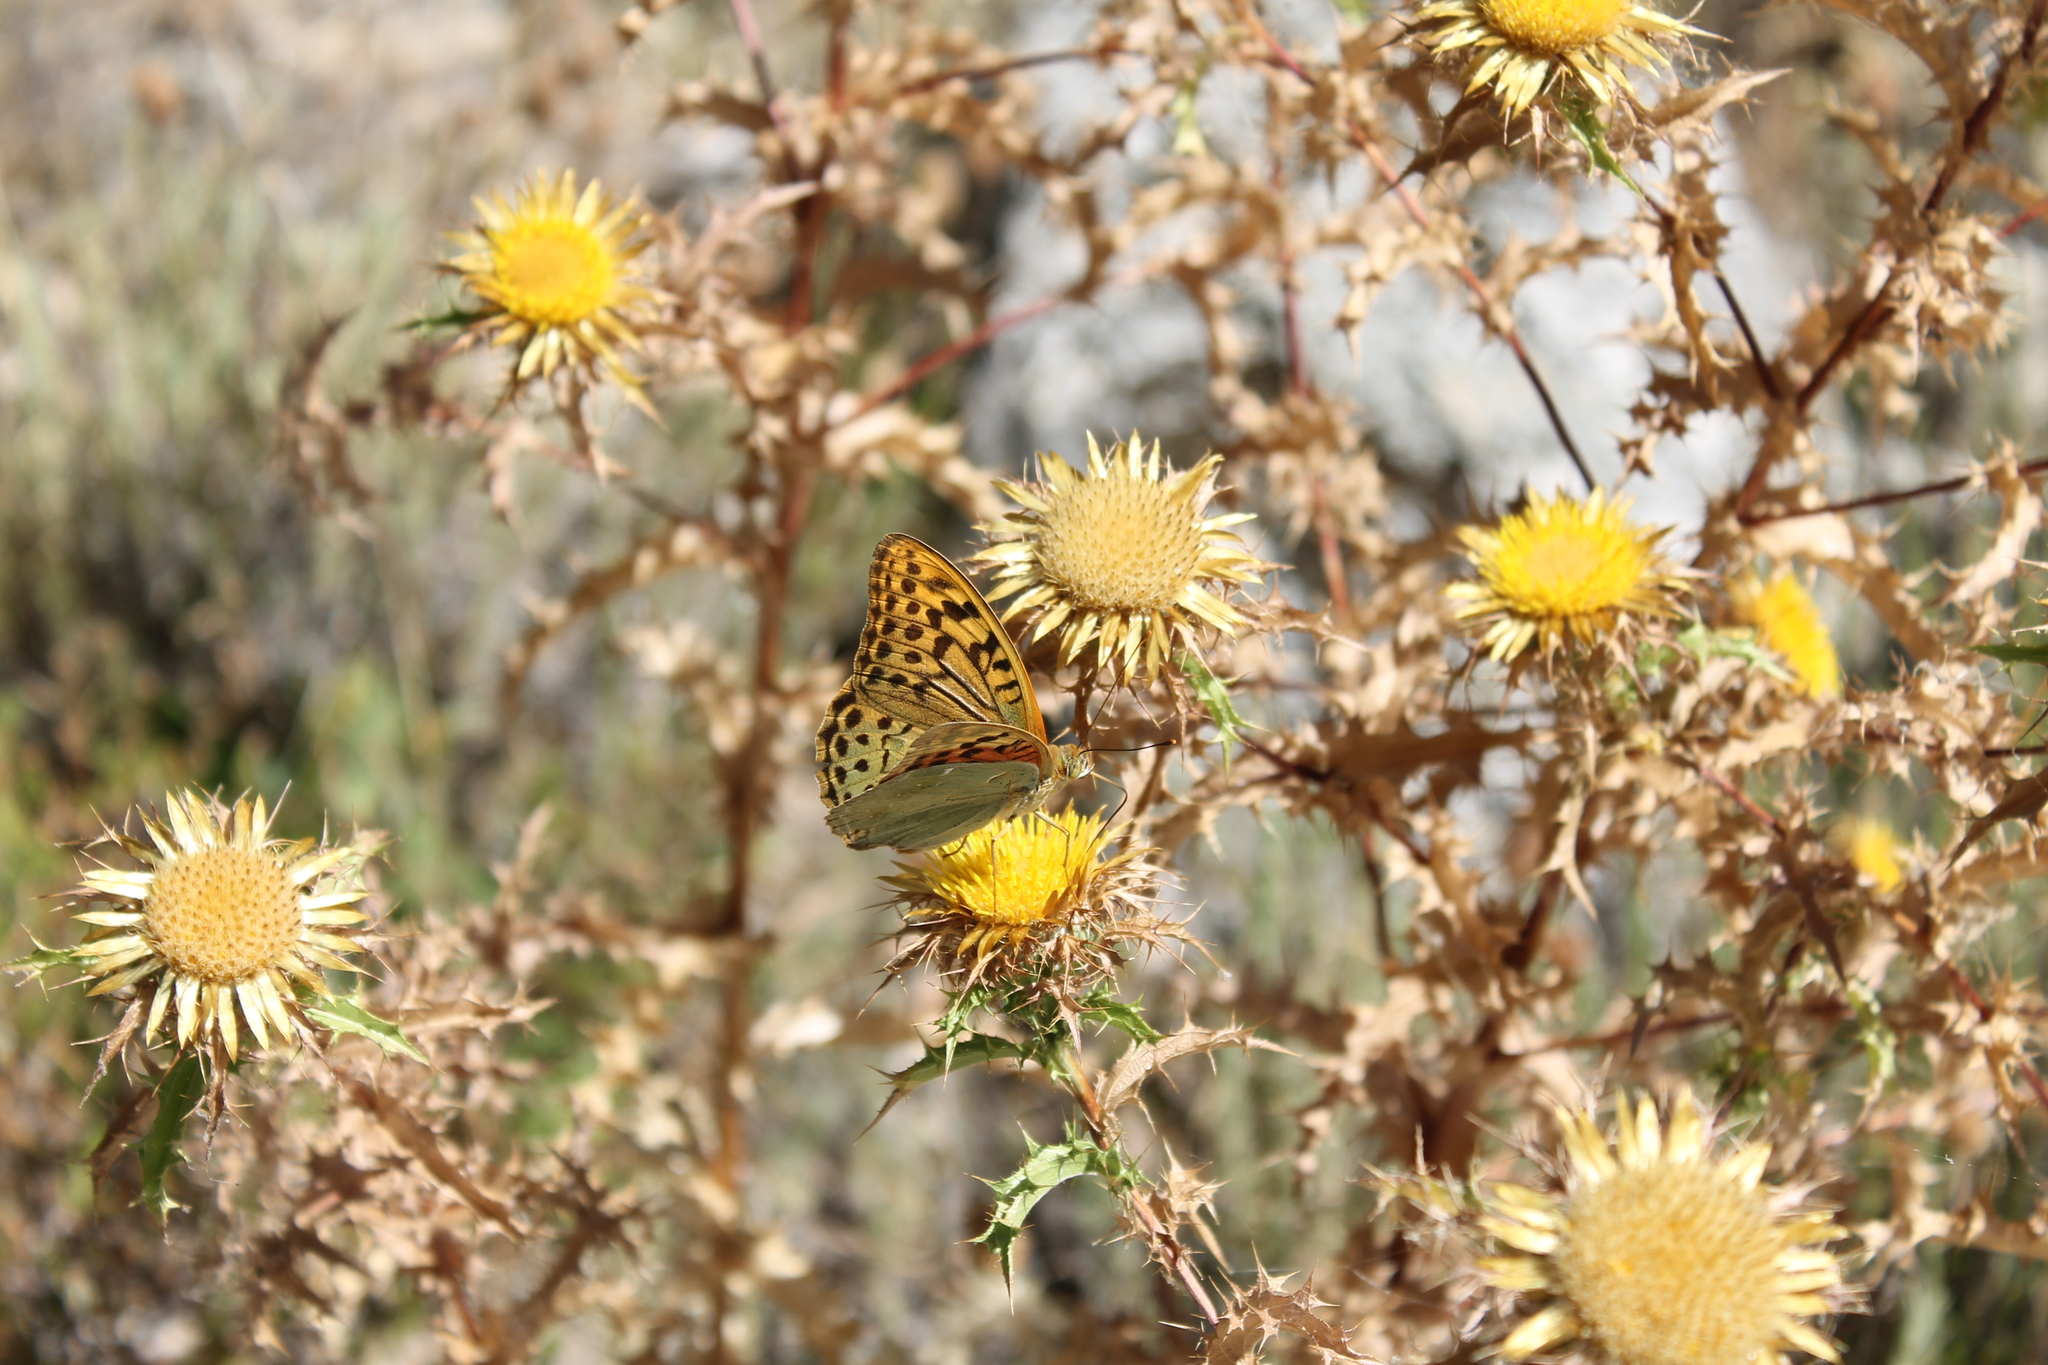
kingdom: Animalia
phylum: Arthropoda
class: Insecta
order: Lepidoptera
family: Nymphalidae
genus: Damora
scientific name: Damora pandora
